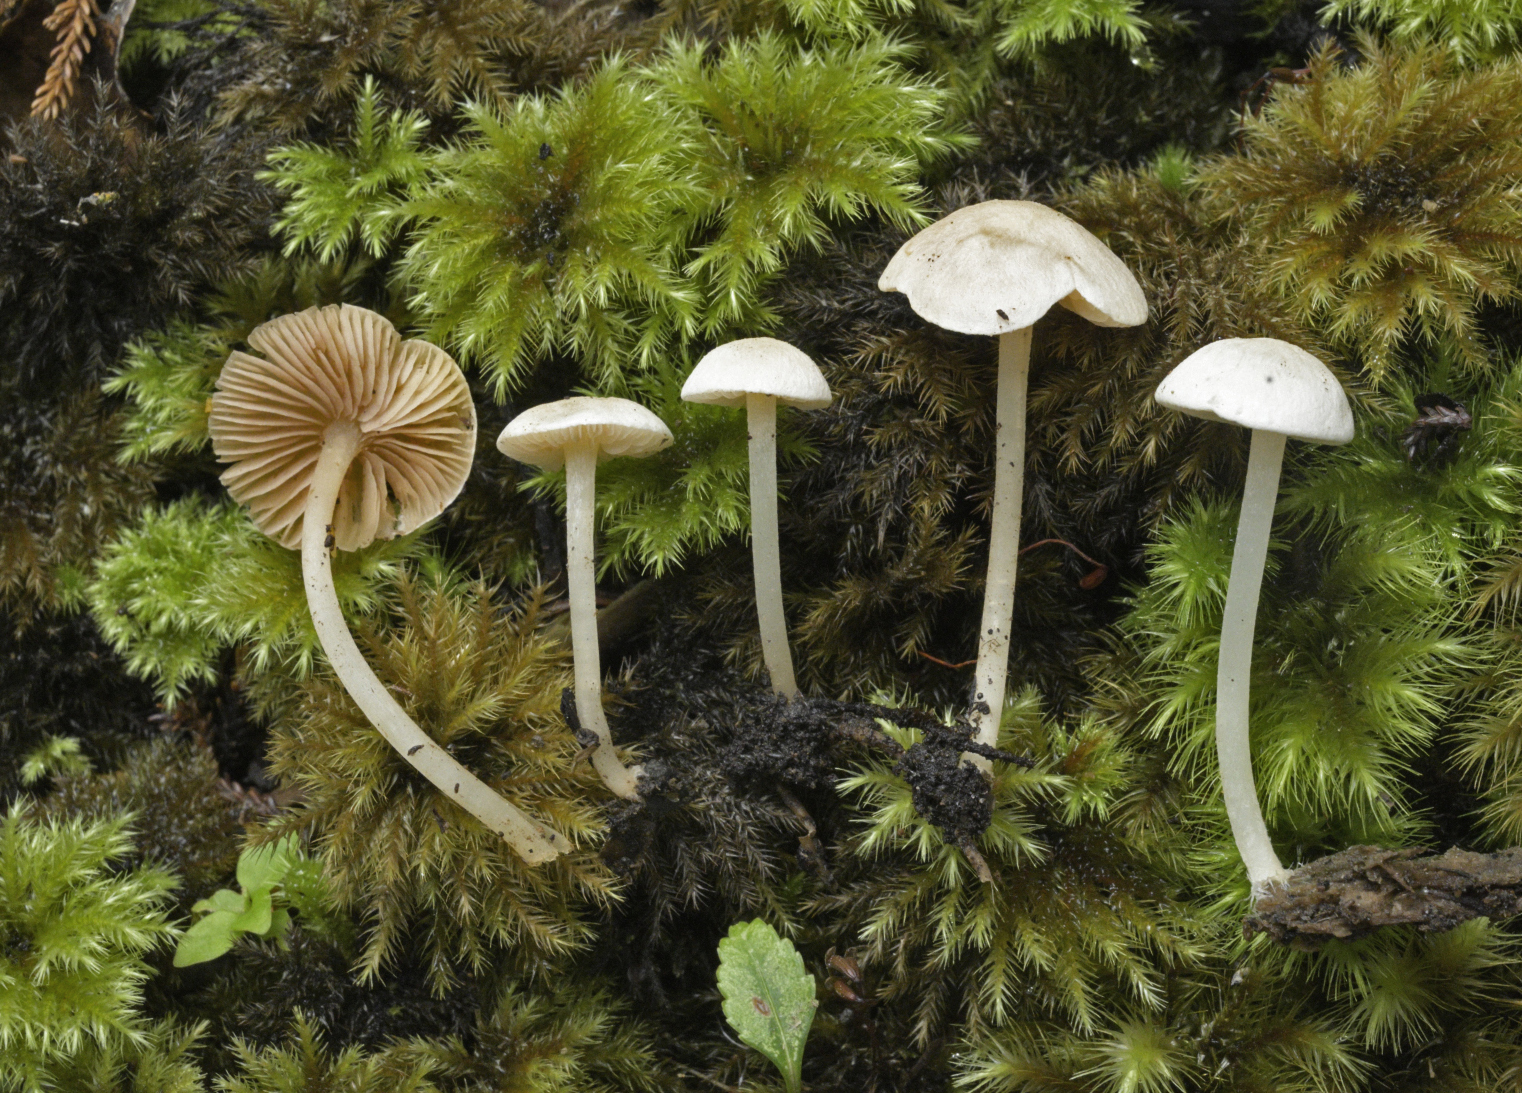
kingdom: Fungi
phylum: Basidiomycota
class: Agaricomycetes
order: Agaricales
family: Entolomataceae
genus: Entoloma
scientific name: Entoloma albidosimulans
